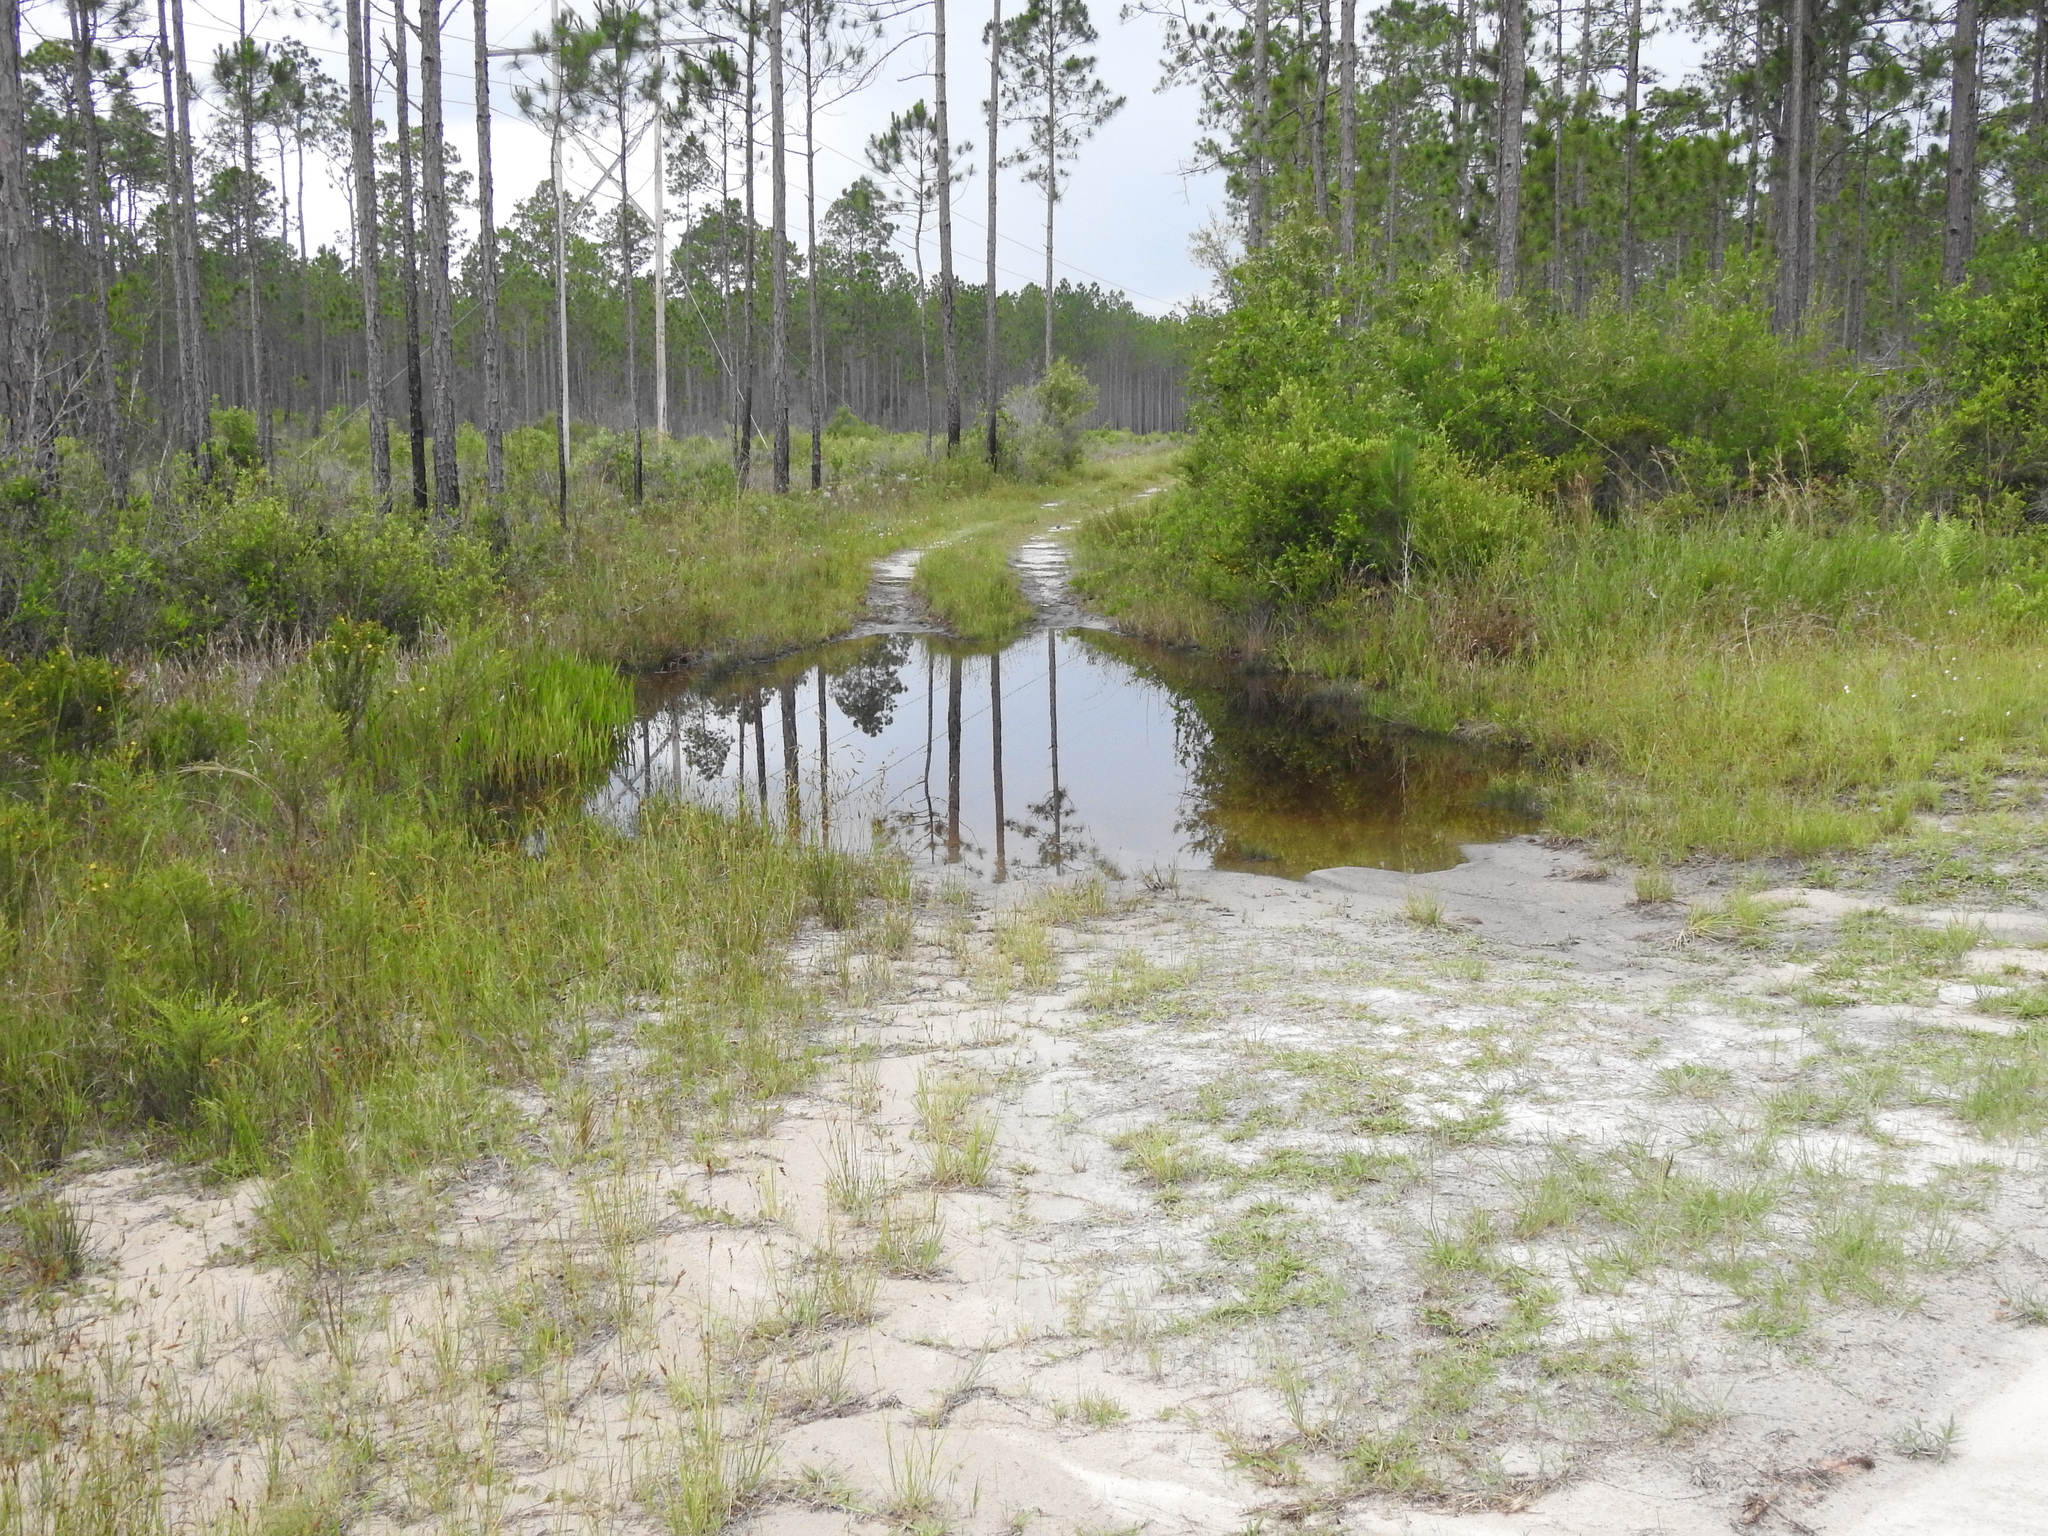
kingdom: Animalia
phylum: Arthropoda
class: Insecta
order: Odonata
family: Gomphidae
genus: Progomphus
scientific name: Progomphus bellei
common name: Belle's sanddragon
